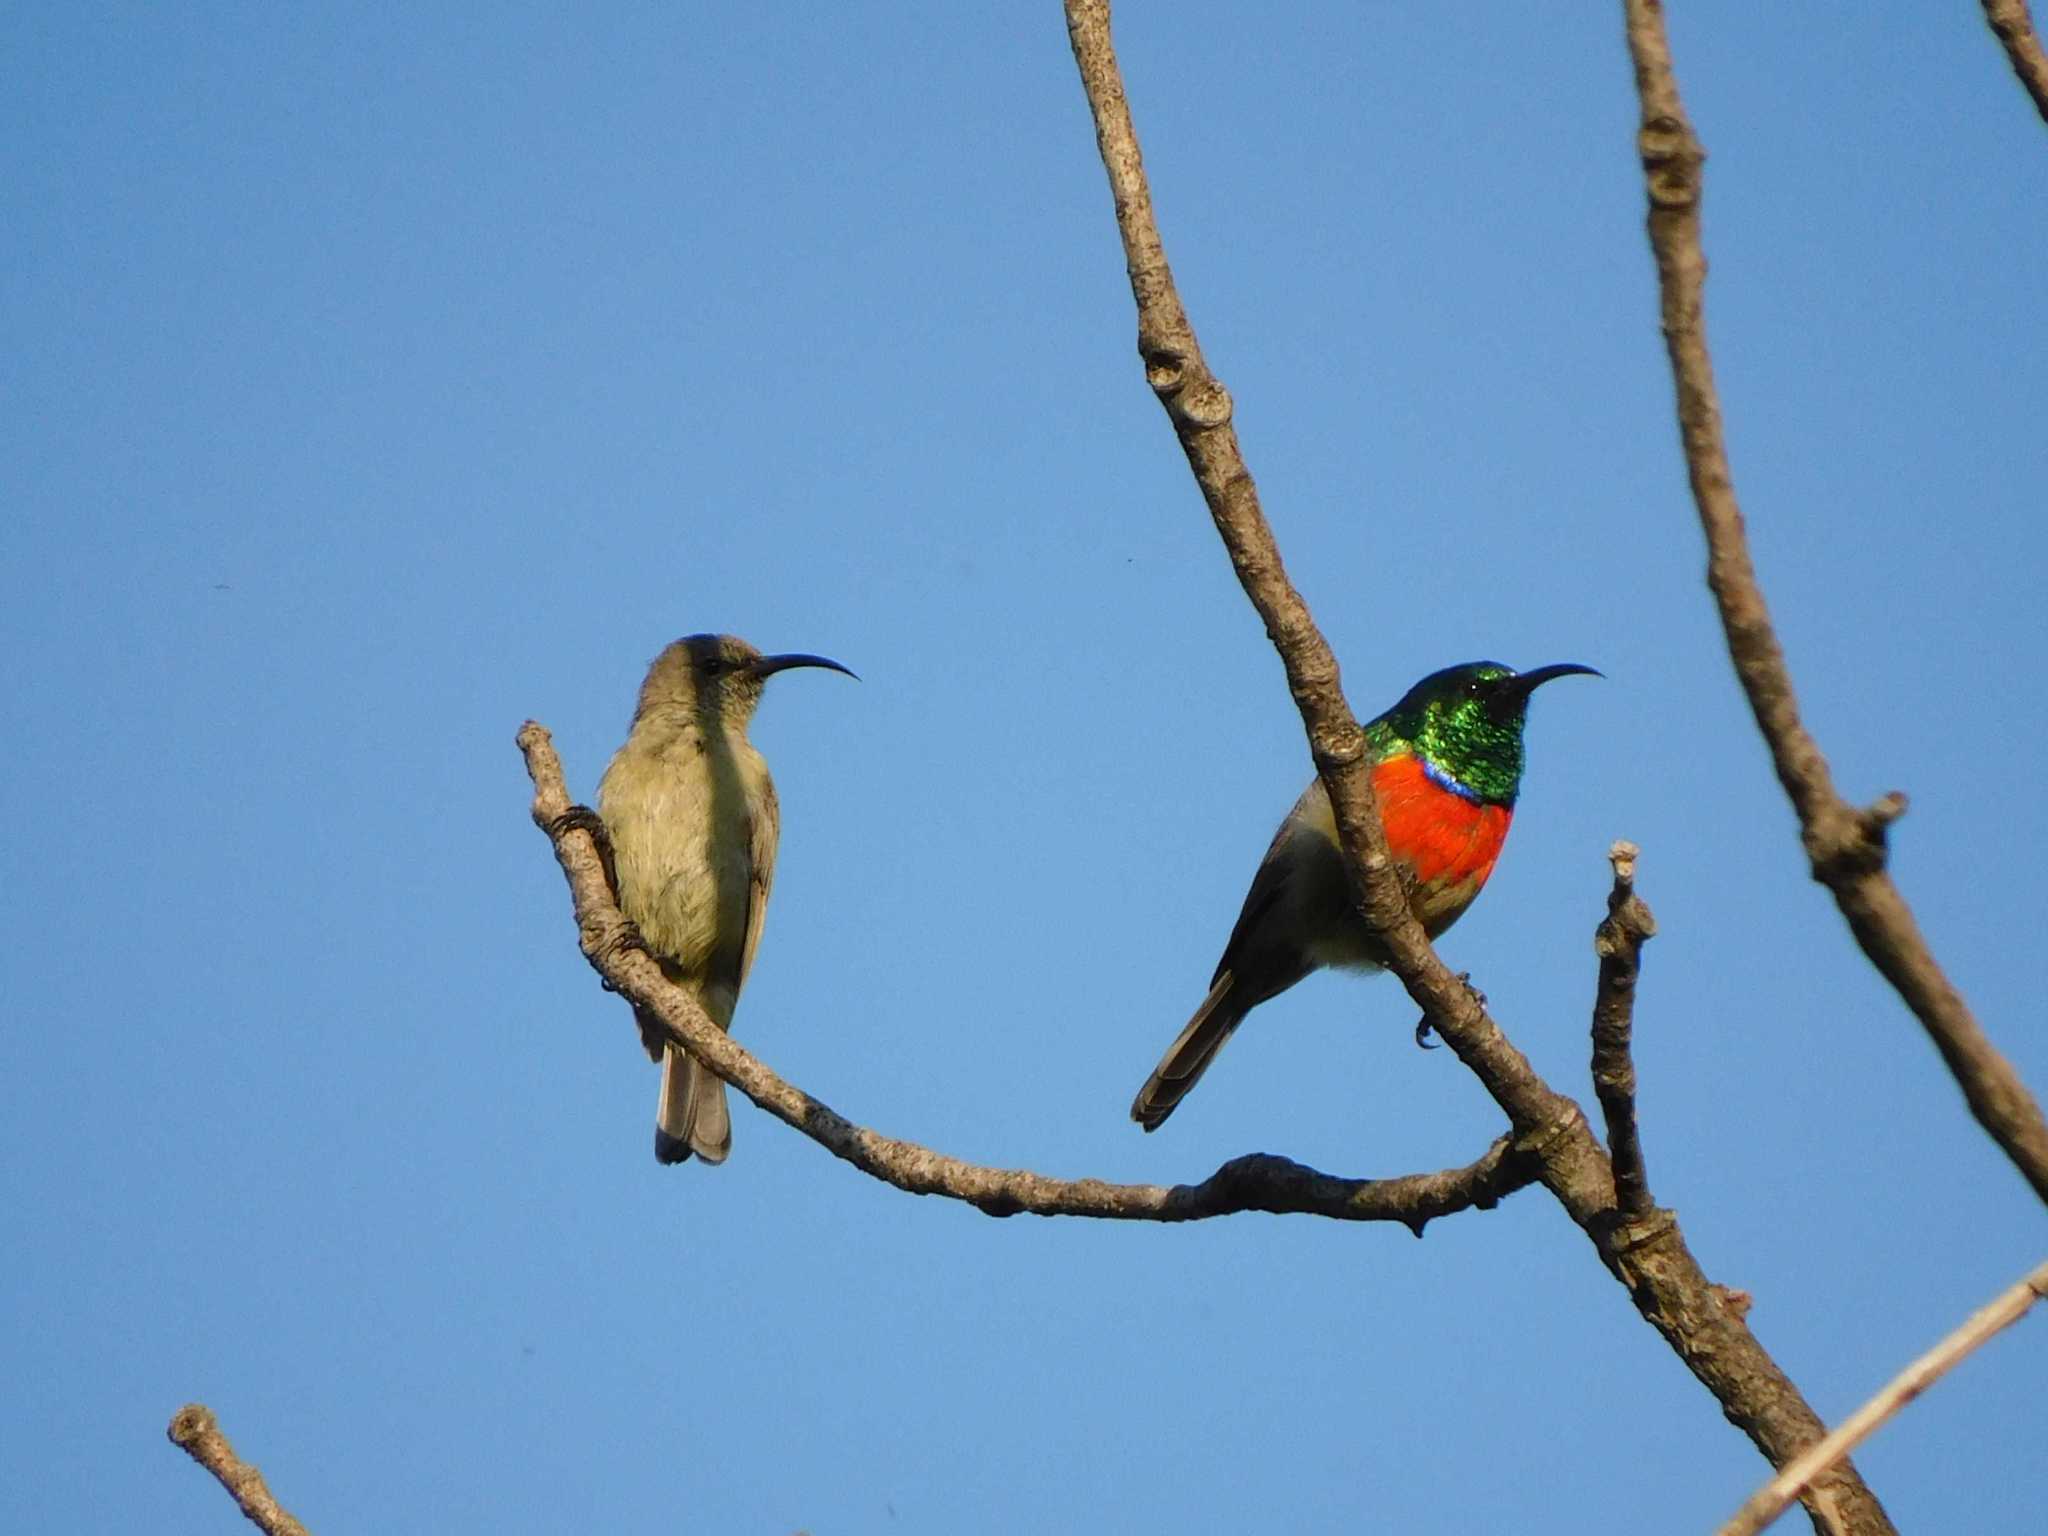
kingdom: Animalia
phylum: Chordata
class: Aves
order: Passeriformes
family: Nectariniidae
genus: Cinnyris
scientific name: Cinnyris afer
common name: Greater double-collared sunbird
